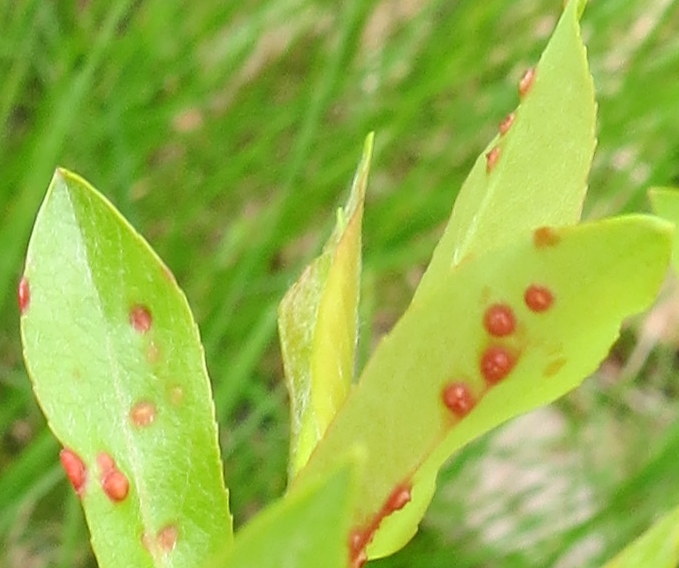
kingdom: Animalia
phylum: Arthropoda
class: Arachnida
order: Trombidiformes
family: Eriophyidae
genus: Aculus
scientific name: Aculus tetanothrix
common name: Willow bead gall mite
